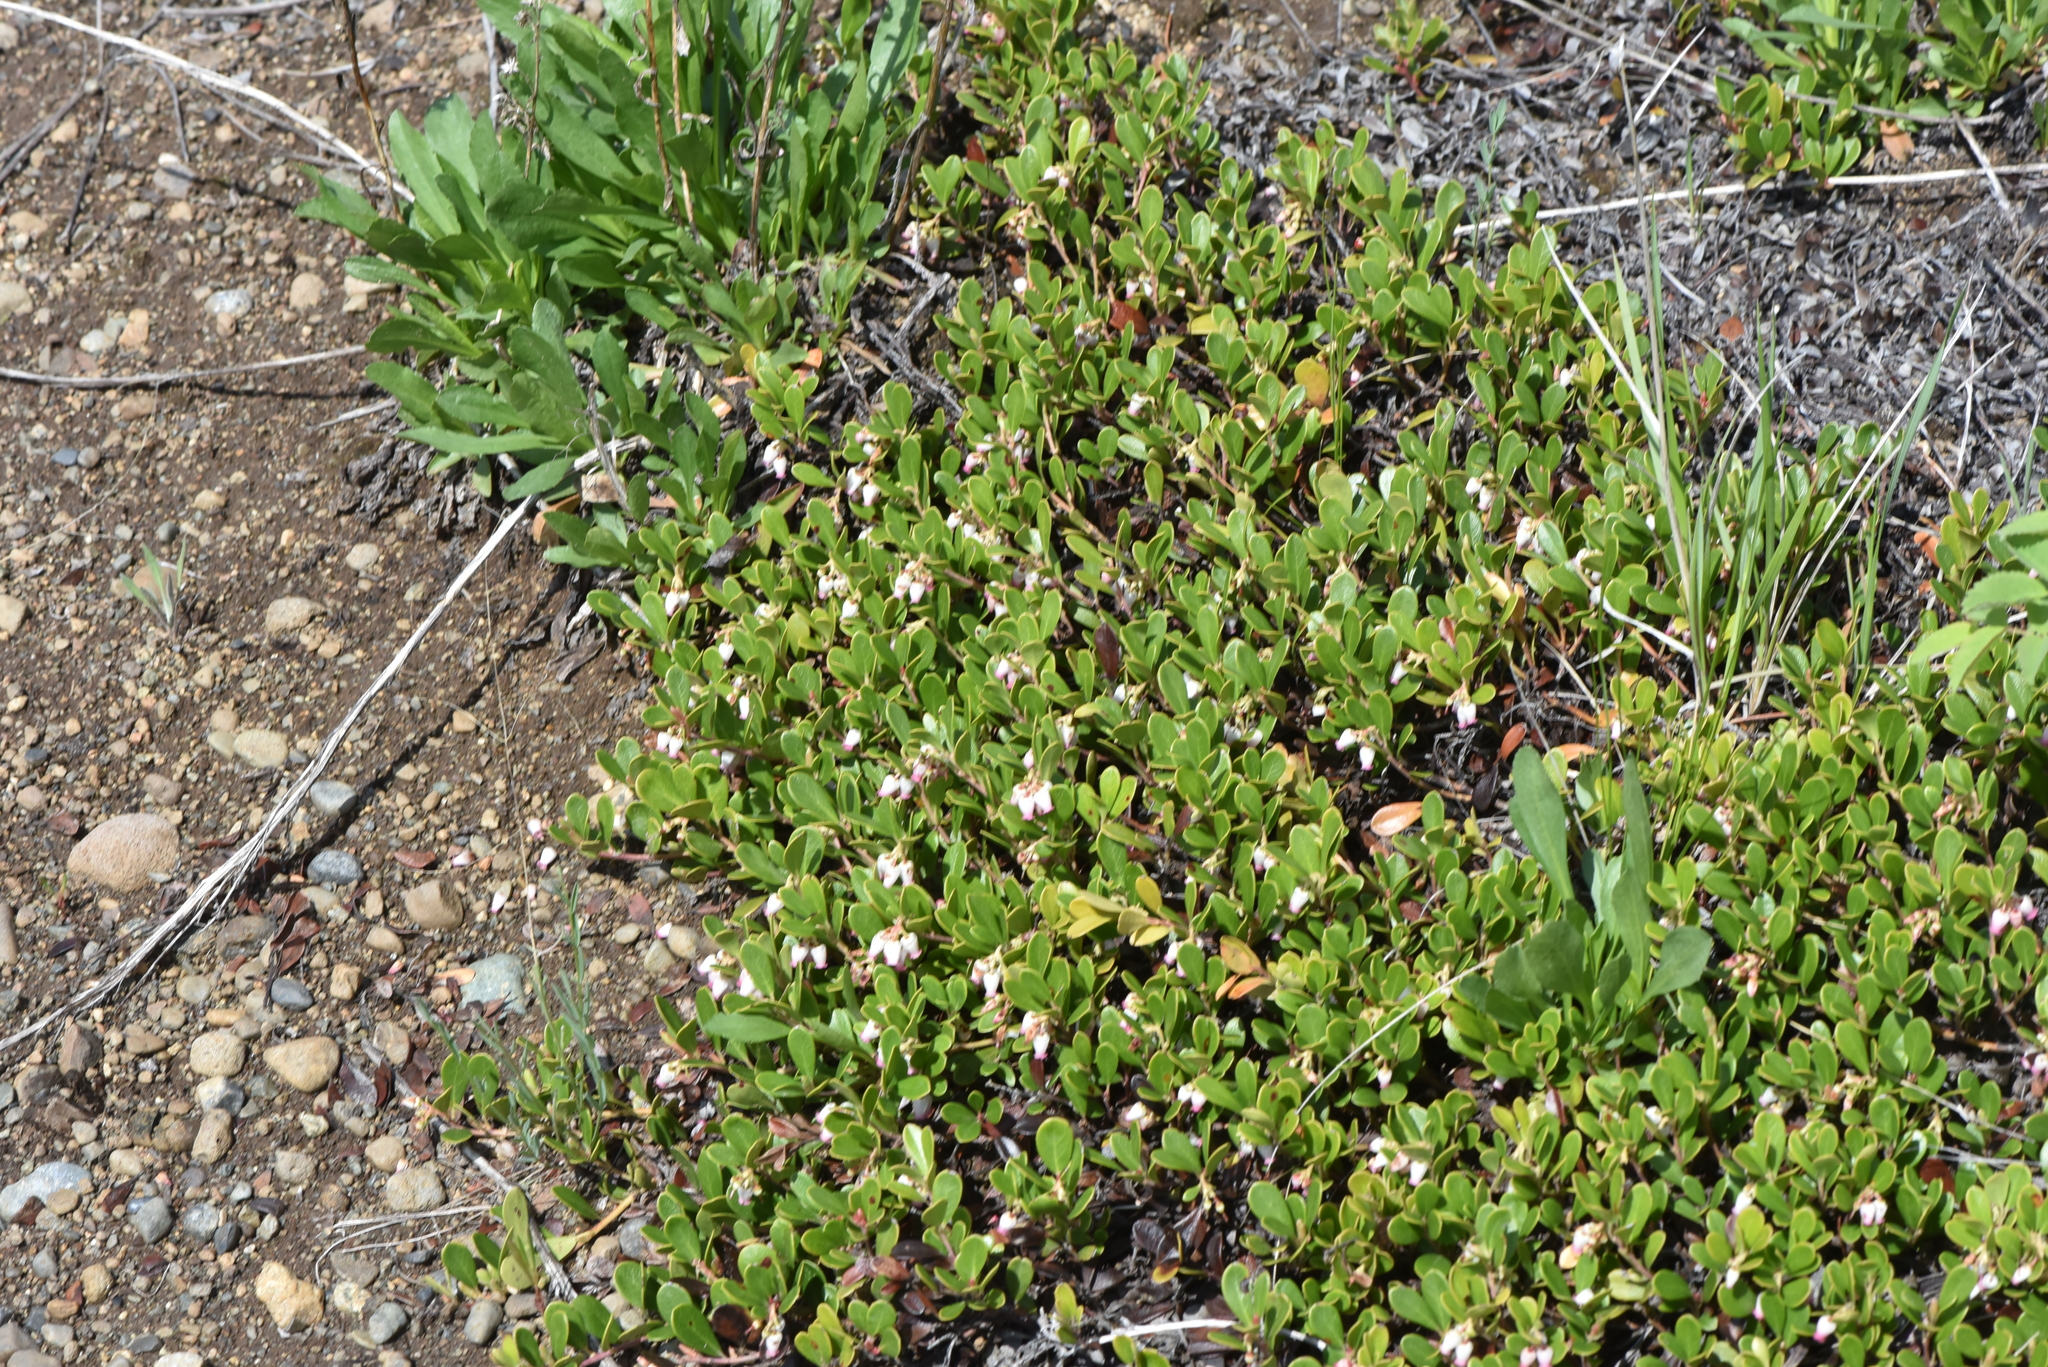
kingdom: Plantae
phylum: Tracheophyta
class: Magnoliopsida
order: Ericales
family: Ericaceae
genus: Arctostaphylos
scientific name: Arctostaphylos uva-ursi
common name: Bearberry
